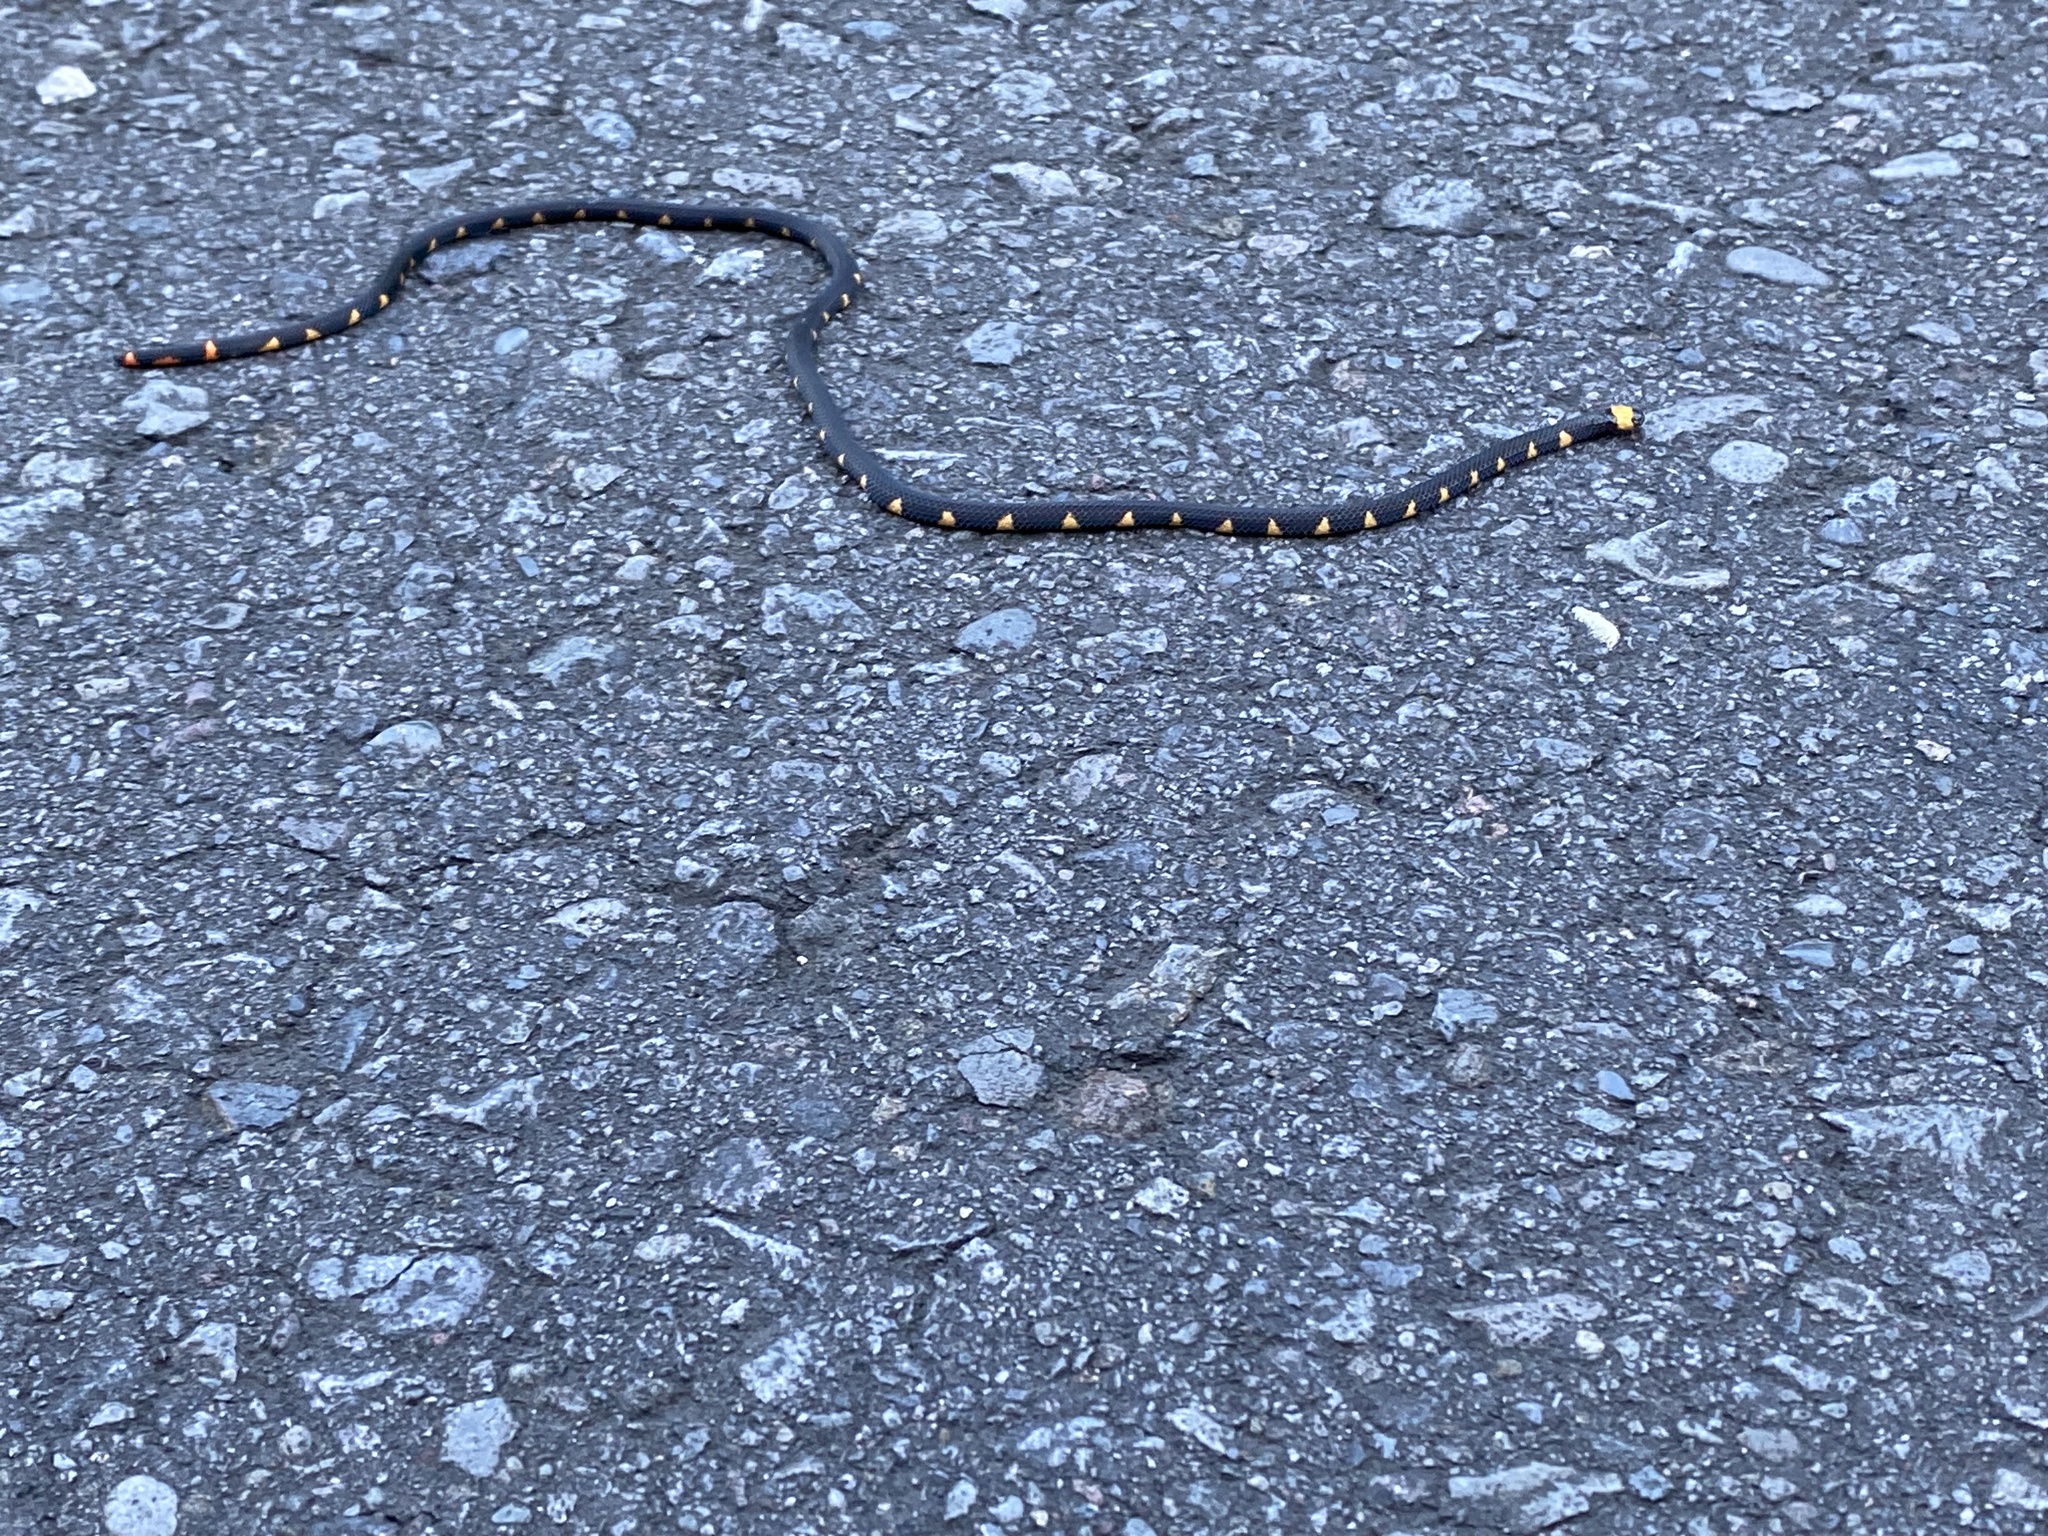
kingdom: Animalia
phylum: Chordata
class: Squamata
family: Elapidae
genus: Micrurus
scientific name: Micrurus narduccii
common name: Andean blackback coral snake
